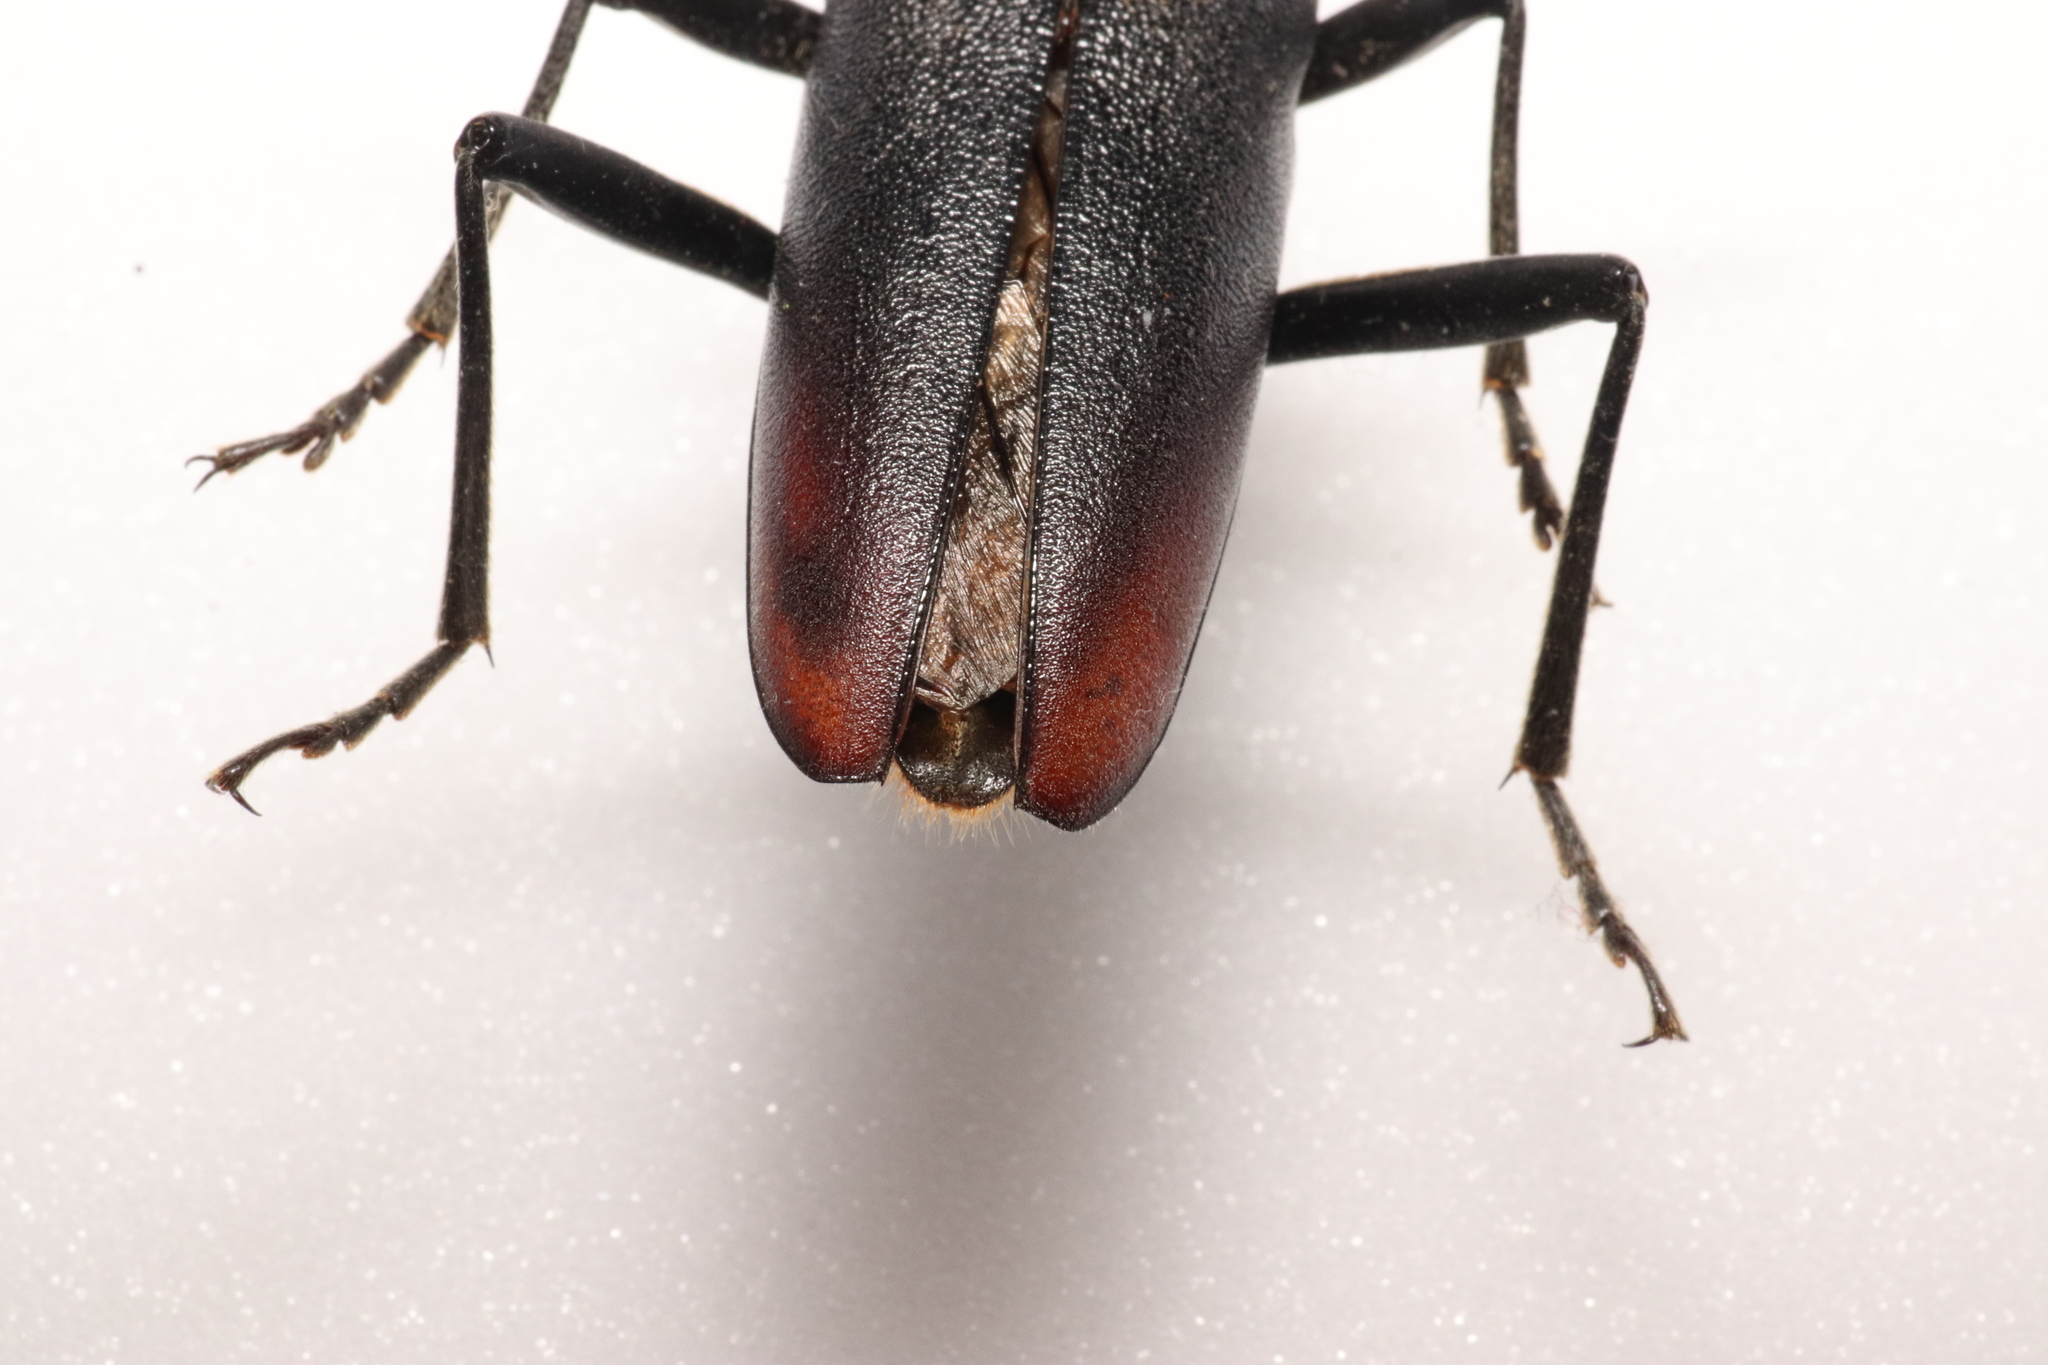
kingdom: Animalia
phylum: Arthropoda
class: Insecta
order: Coleoptera
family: Cerambycidae
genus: Cerambyx
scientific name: Cerambyx cerdo
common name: Cerambyx longicorn
